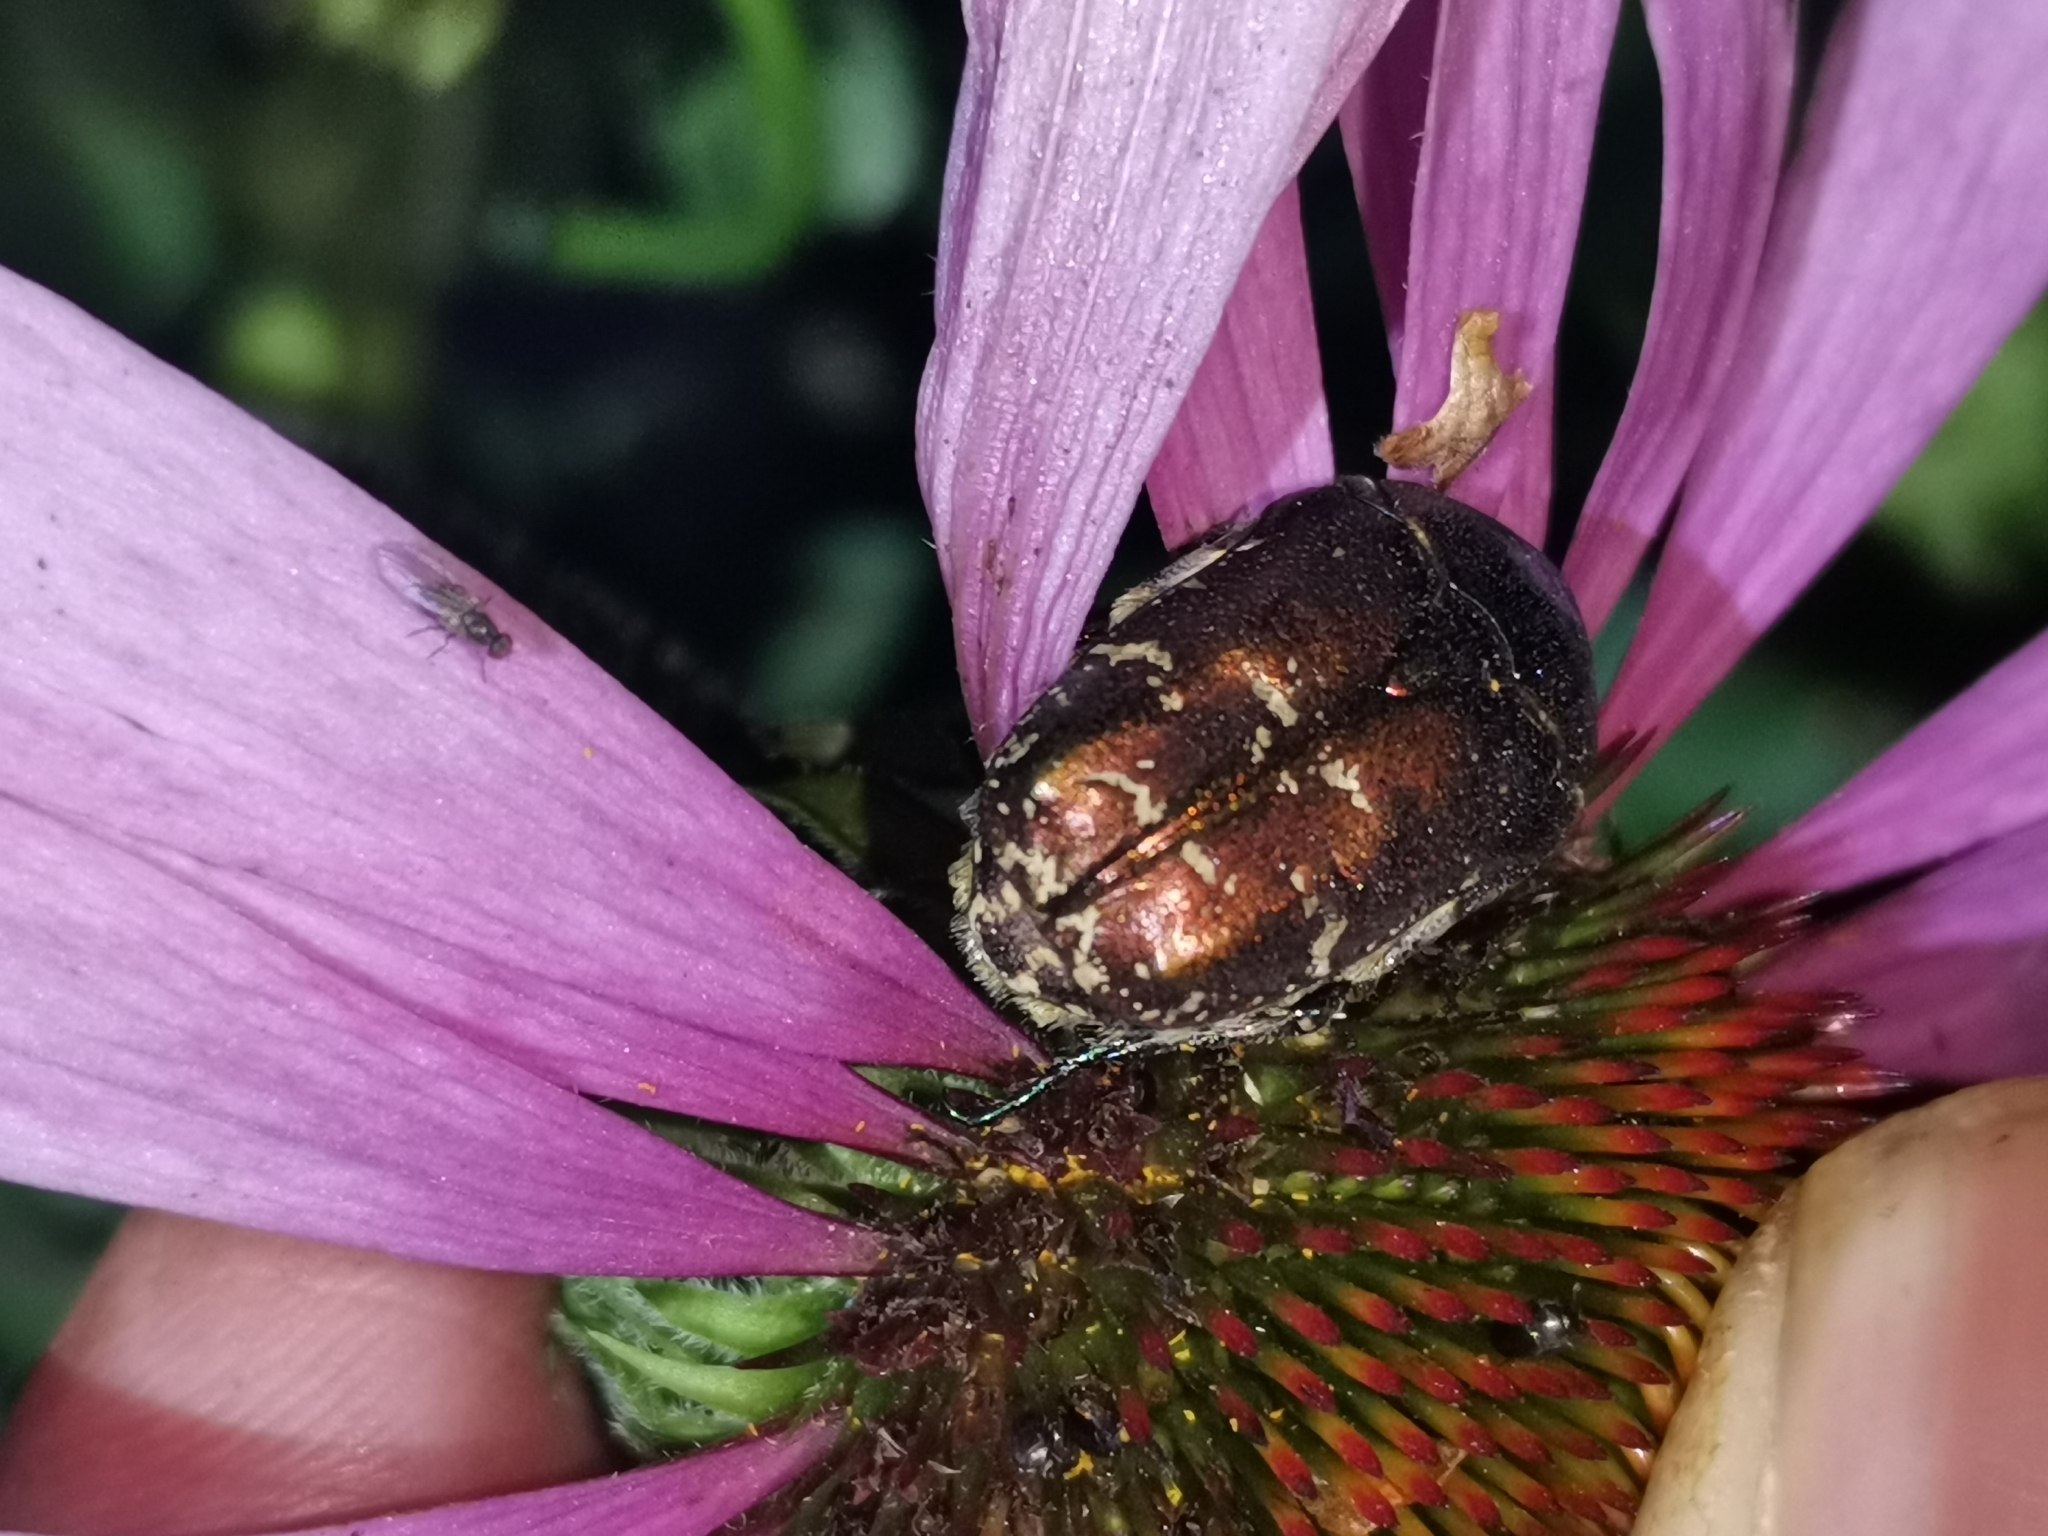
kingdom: Animalia
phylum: Arthropoda
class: Insecta
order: Coleoptera
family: Scarabaeidae
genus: Protaetia
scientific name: Protaetia cuprea
